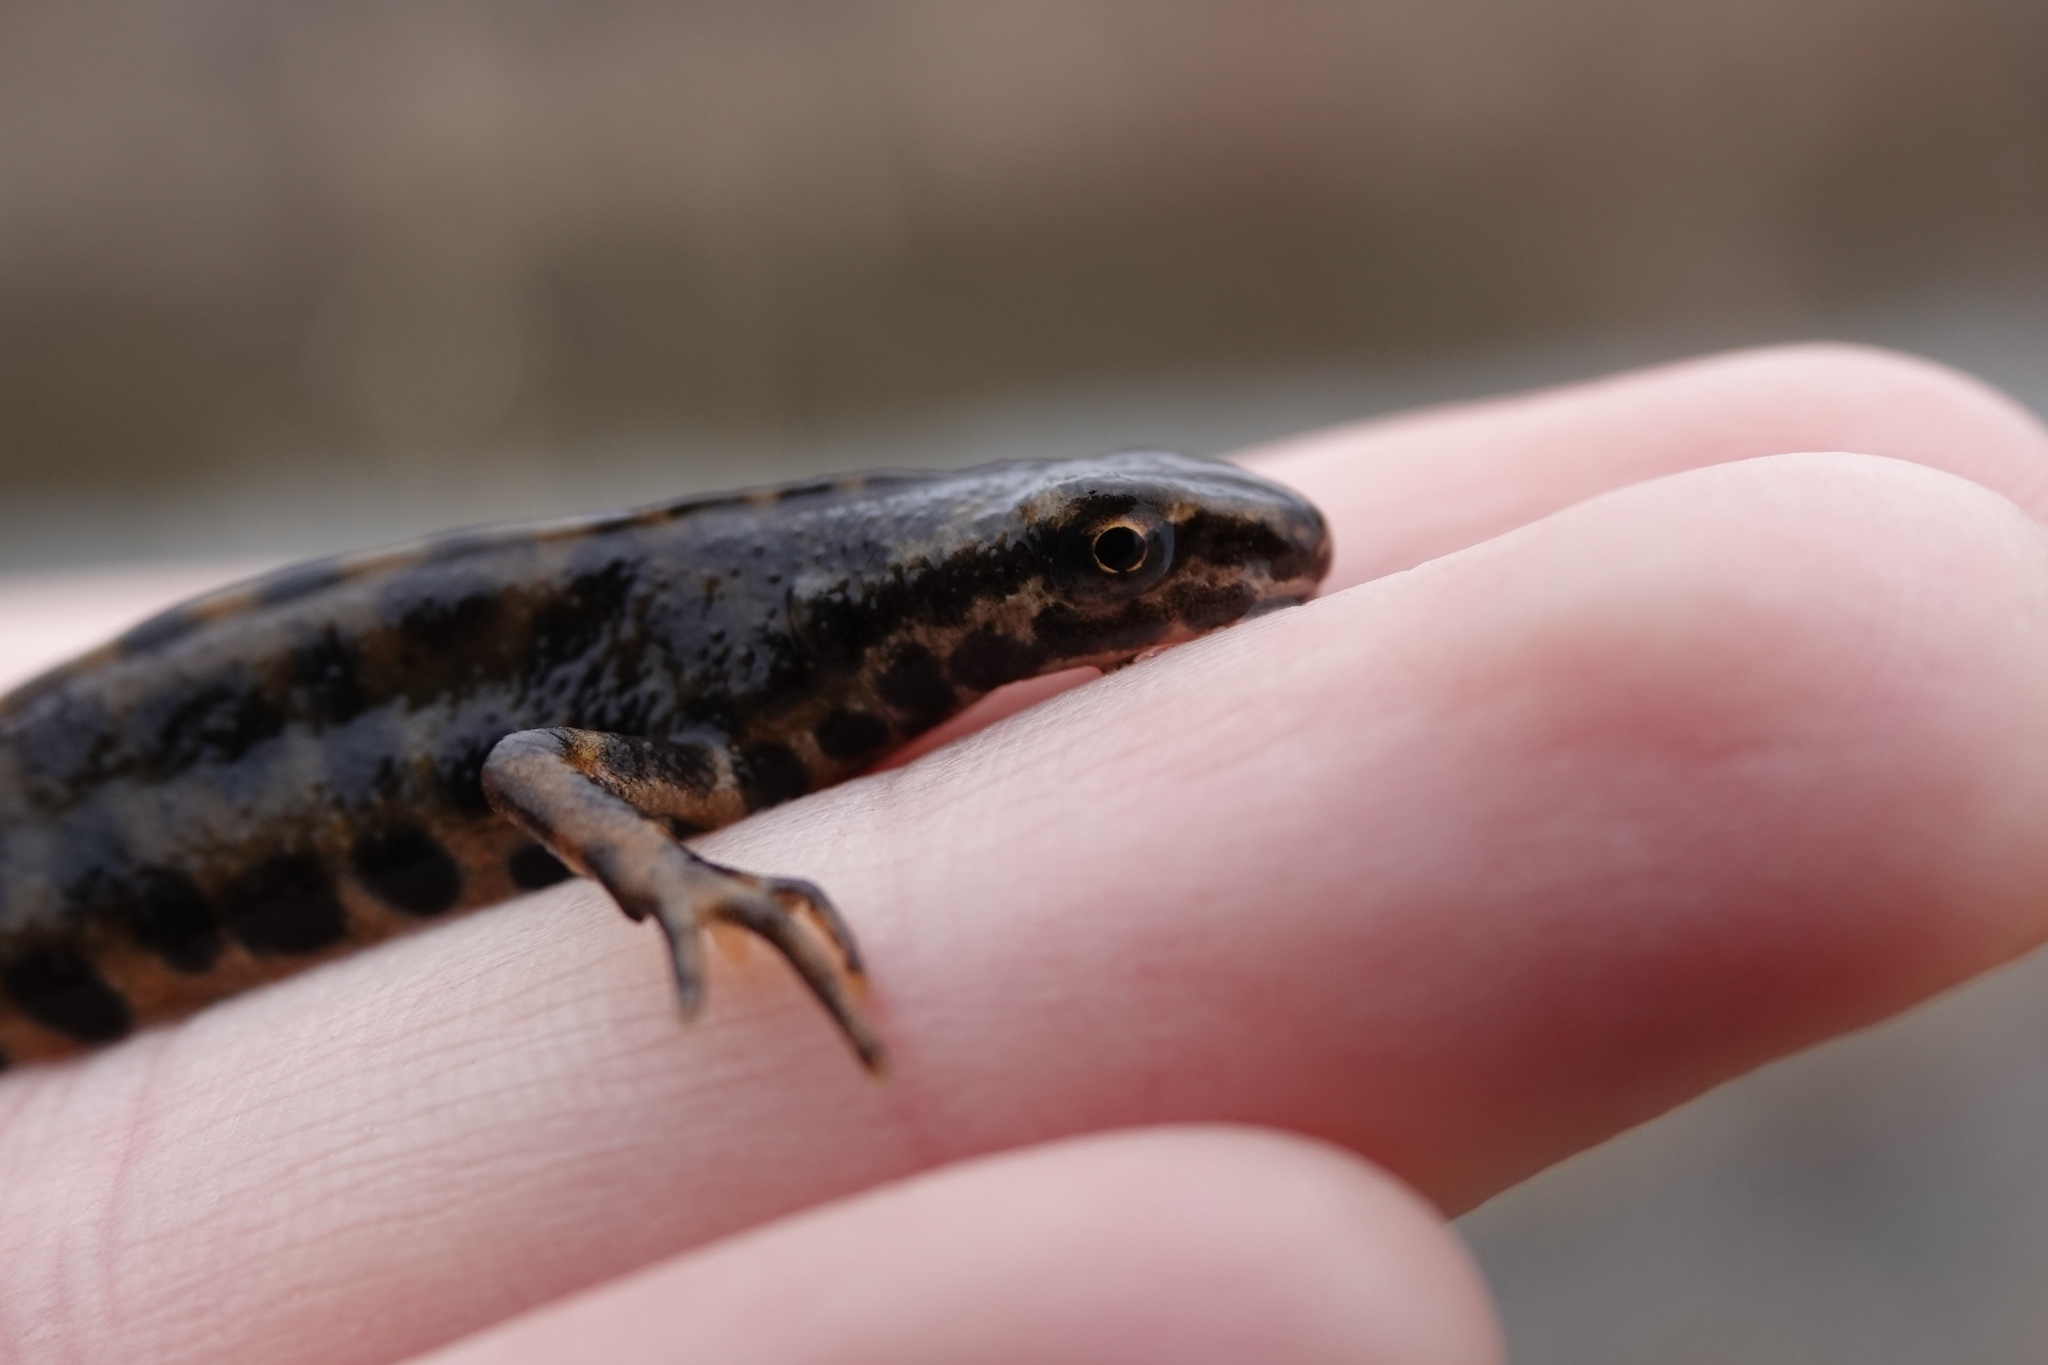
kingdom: Animalia
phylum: Chordata
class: Amphibia
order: Caudata
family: Salamandridae
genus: Lissotriton
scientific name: Lissotriton vulgaris
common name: Smooth newt
